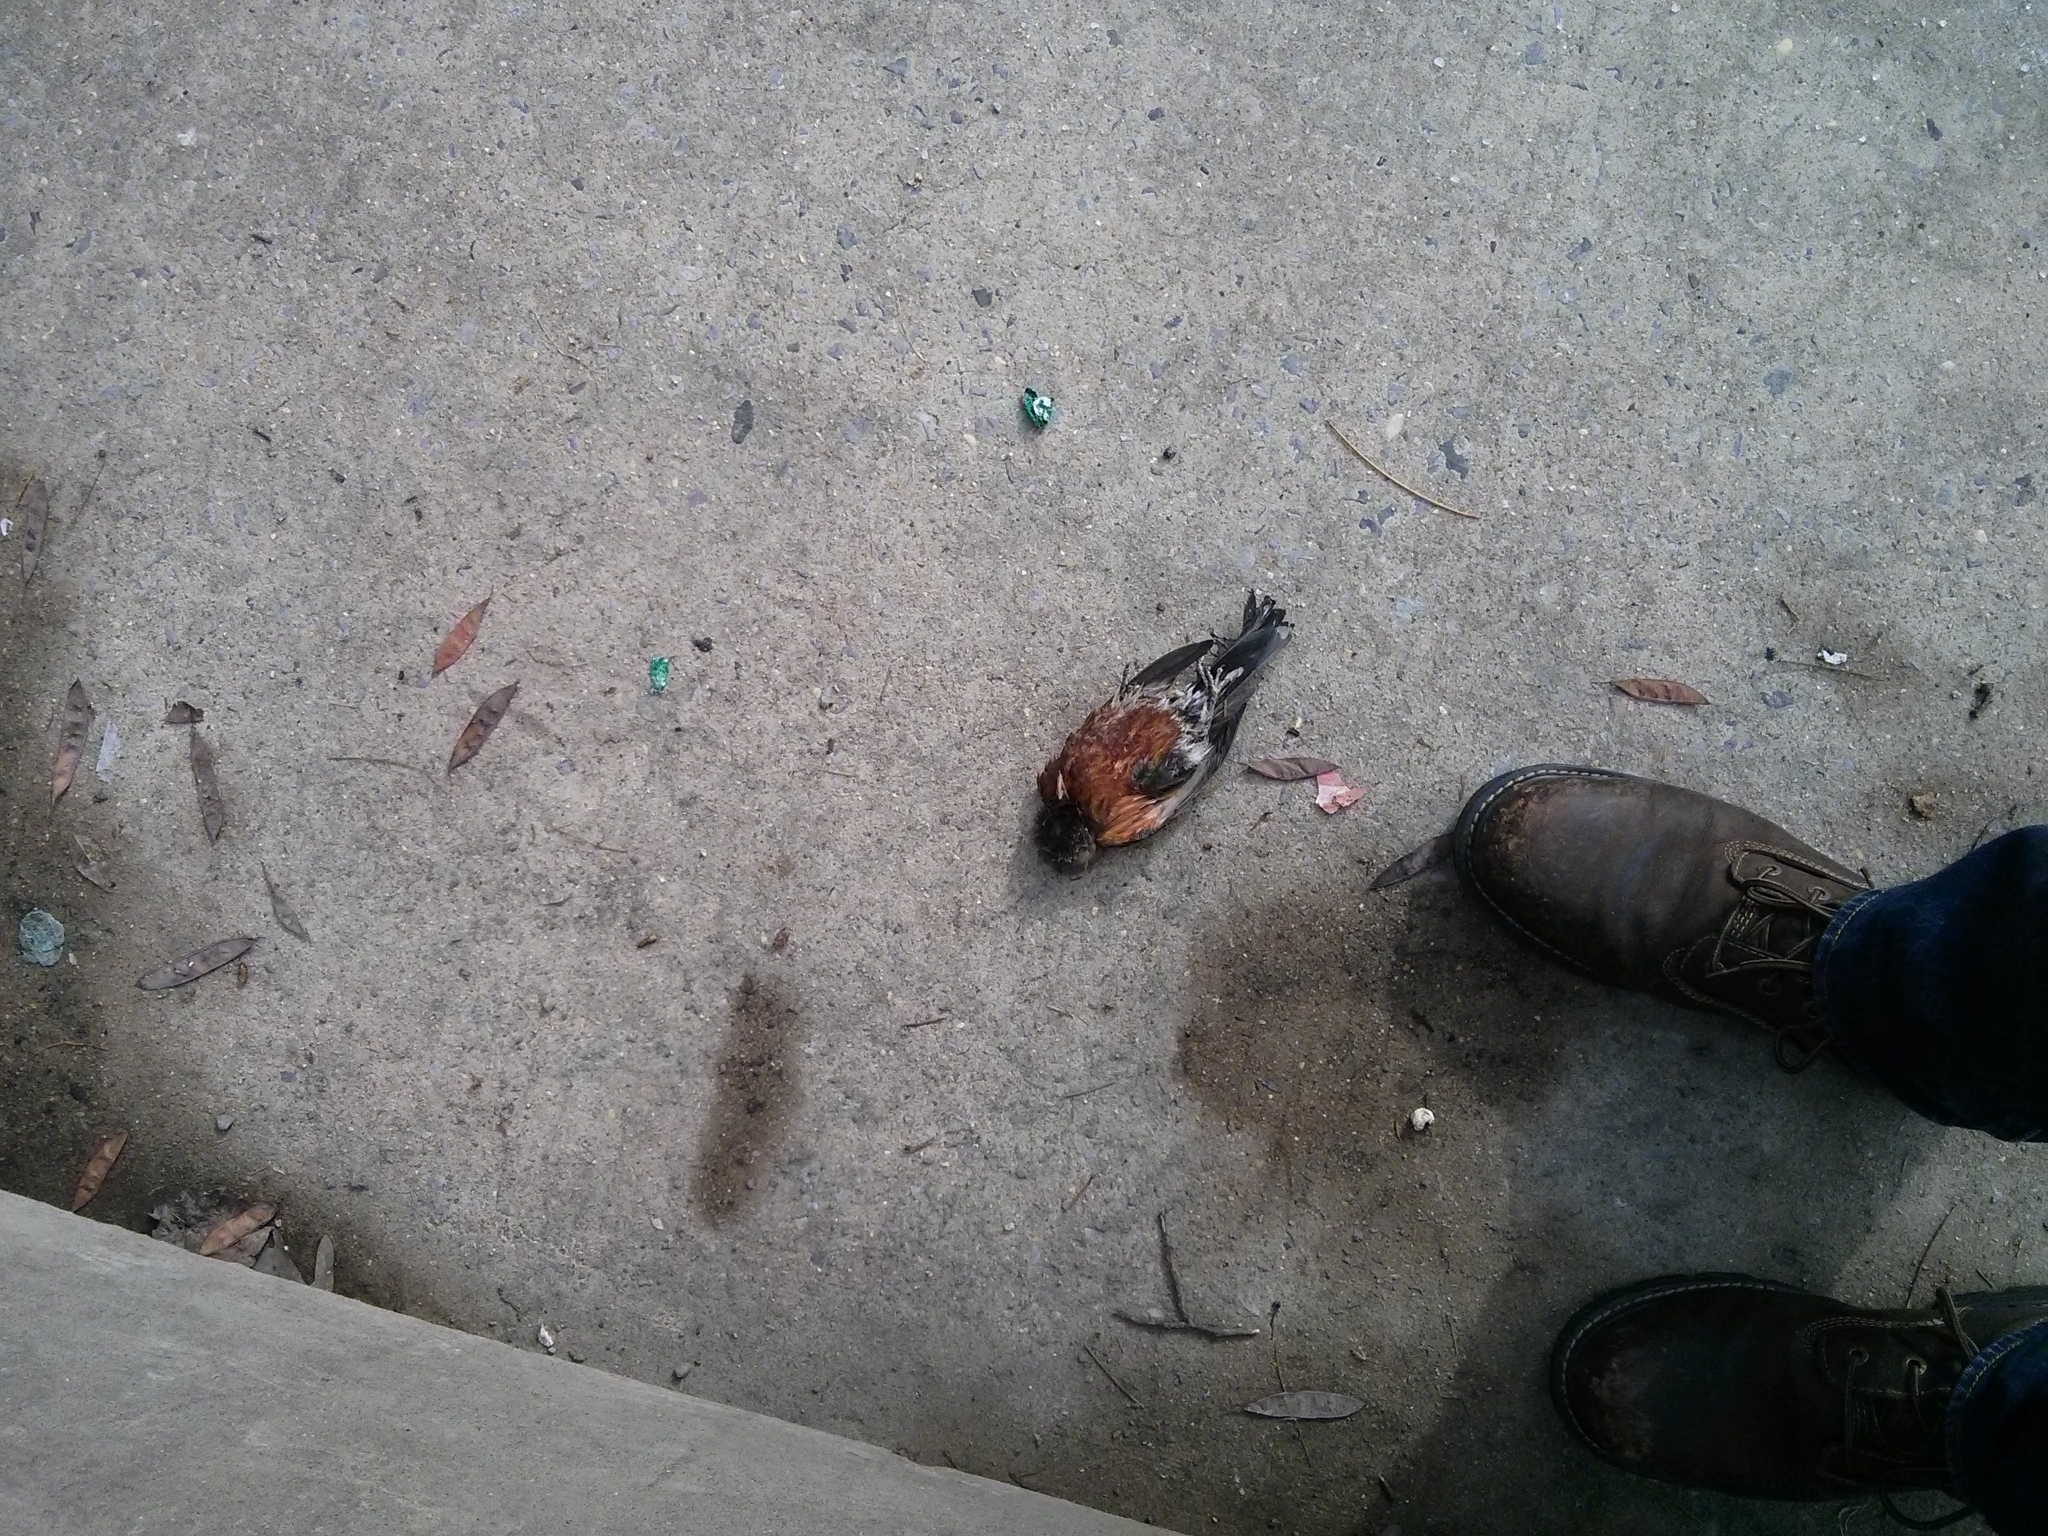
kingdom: Animalia
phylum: Chordata
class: Aves
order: Passeriformes
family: Turdidae
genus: Turdus
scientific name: Turdus migratorius
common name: American robin
